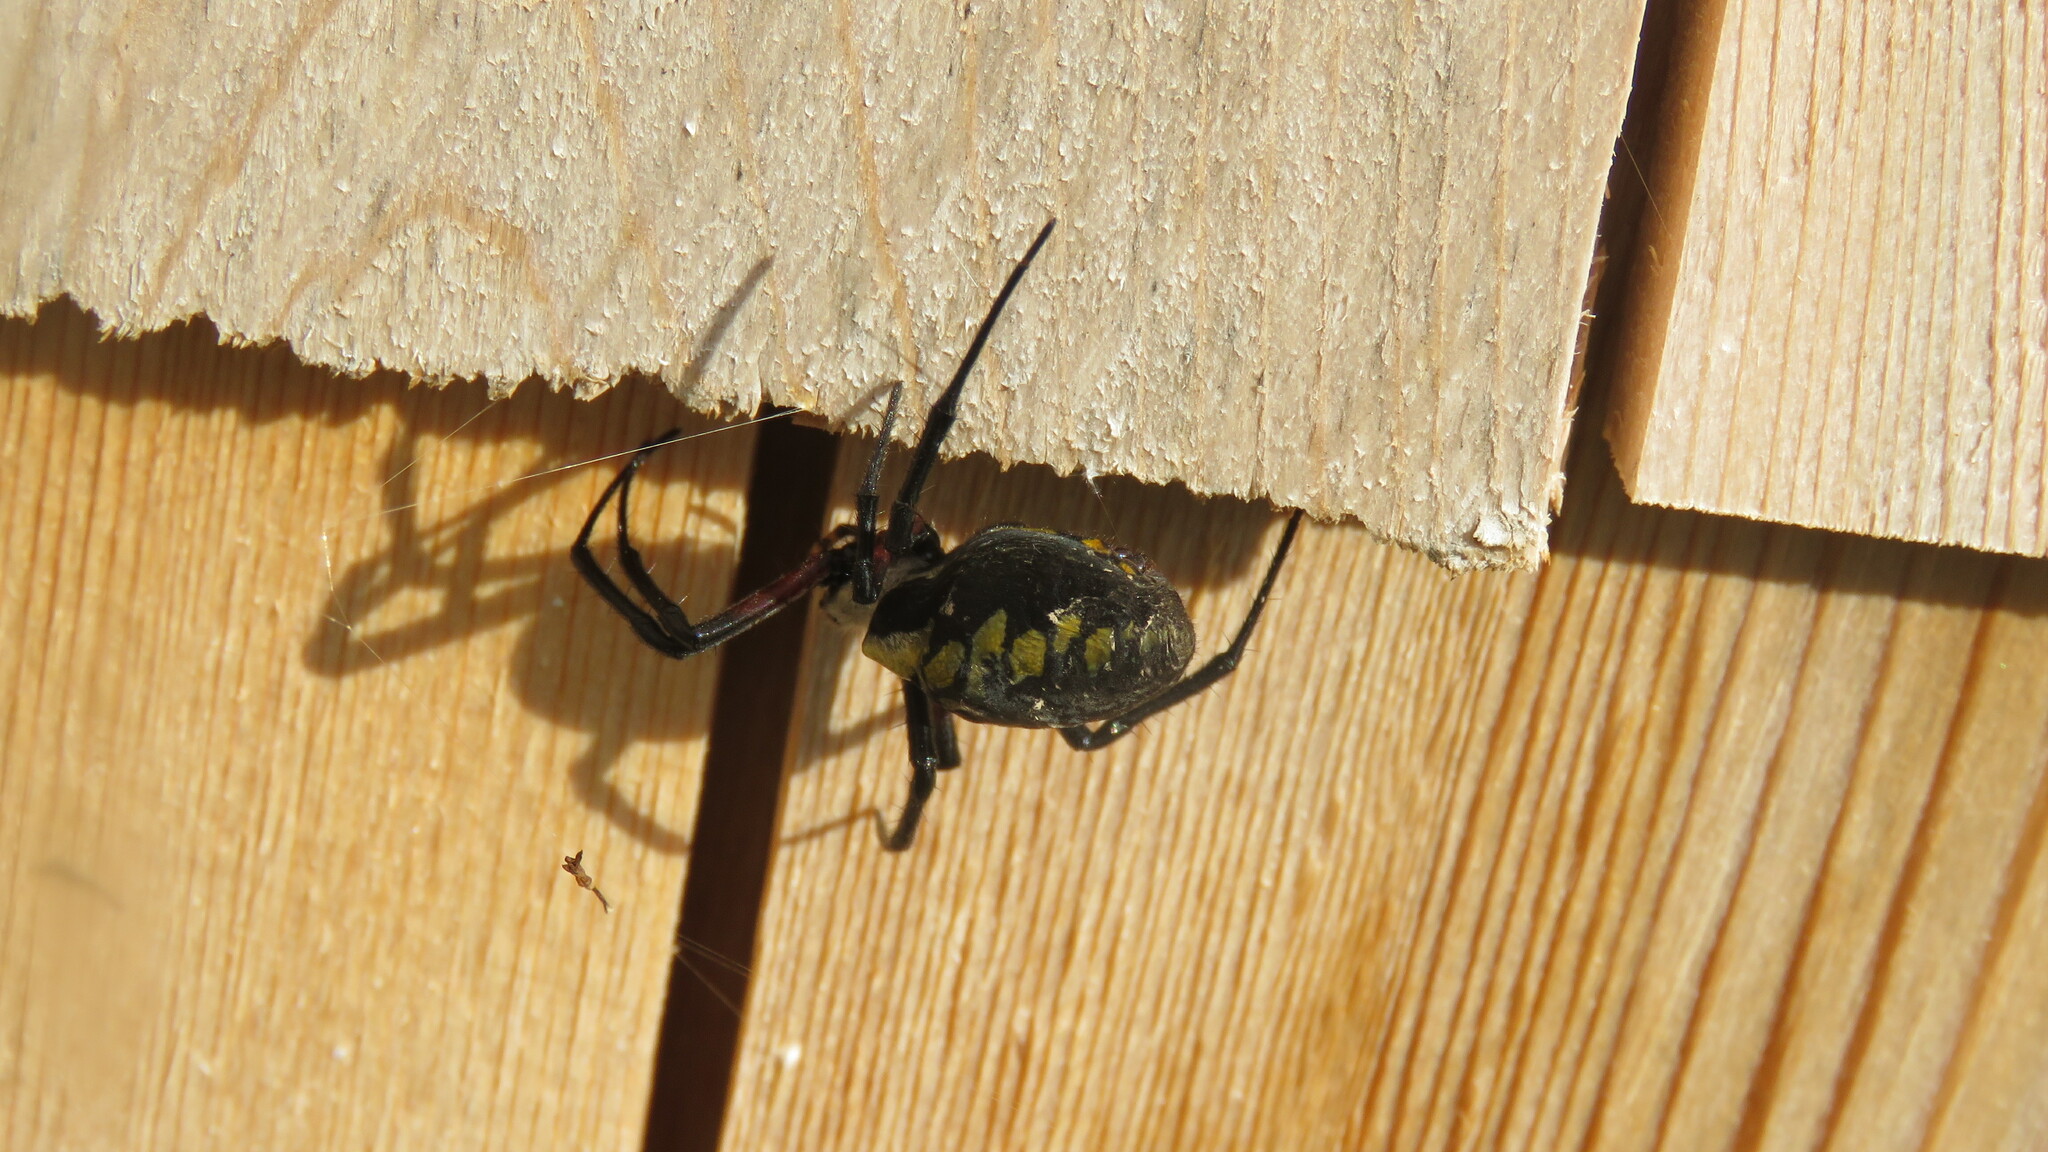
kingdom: Animalia
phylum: Arthropoda
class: Arachnida
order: Araneae
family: Araneidae
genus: Argiope
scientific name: Argiope aurantia
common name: Orb weavers
